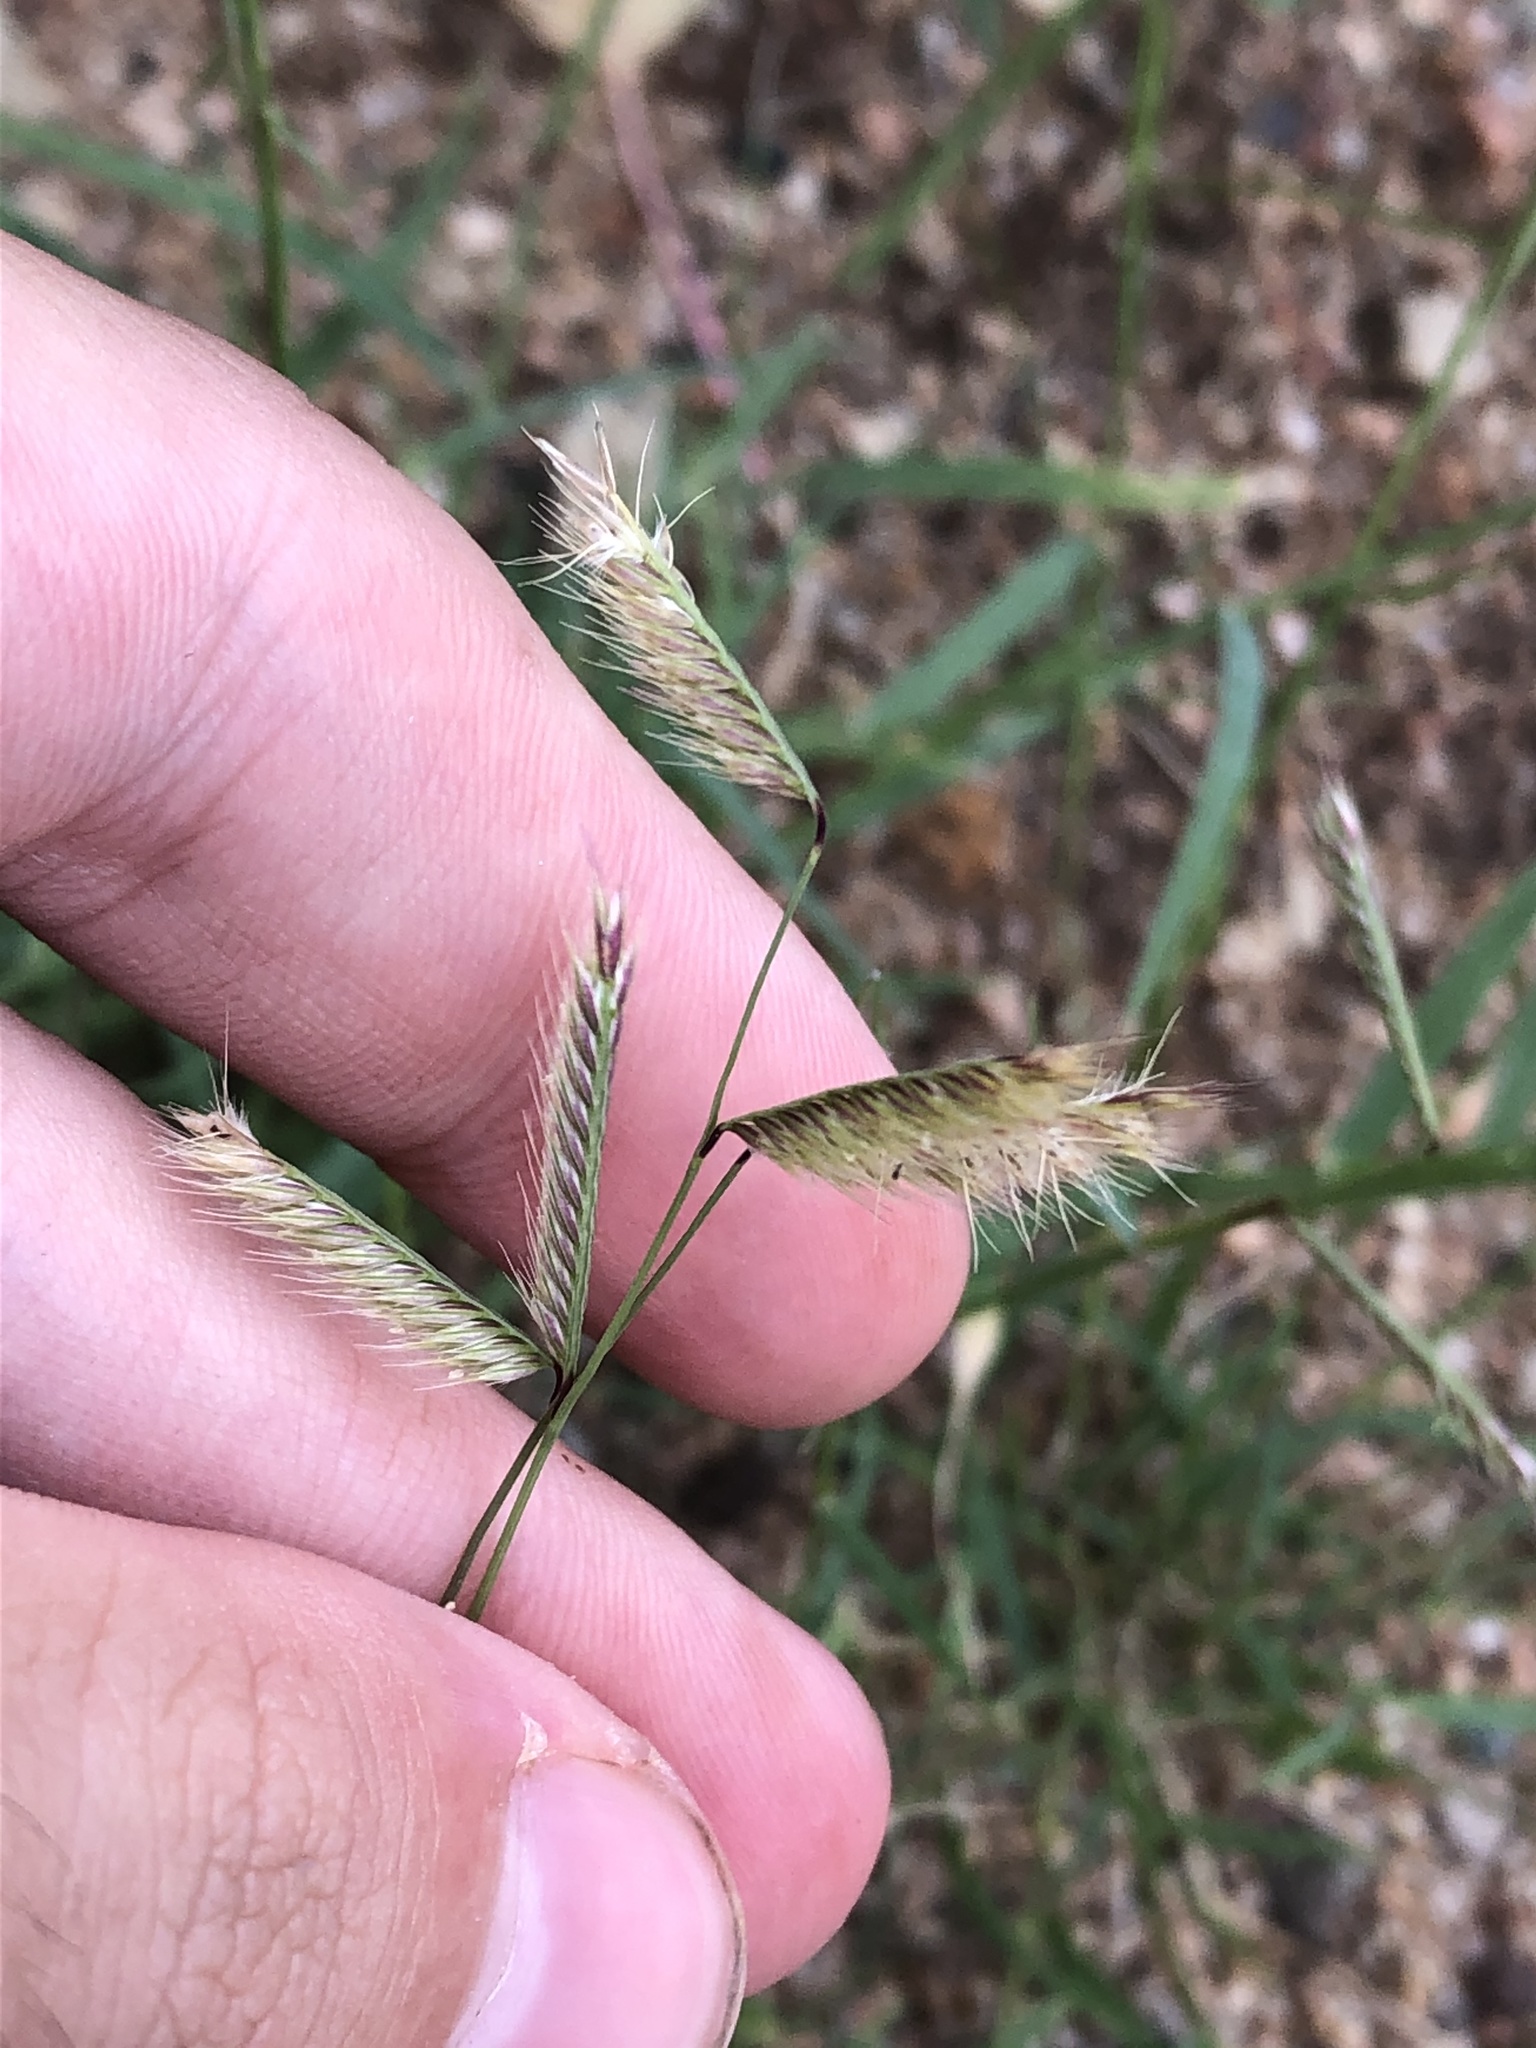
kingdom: Plantae
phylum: Tracheophyta
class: Liliopsida
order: Poales
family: Poaceae
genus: Bouteloua
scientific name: Bouteloua barbata
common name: Six-weeks grama
